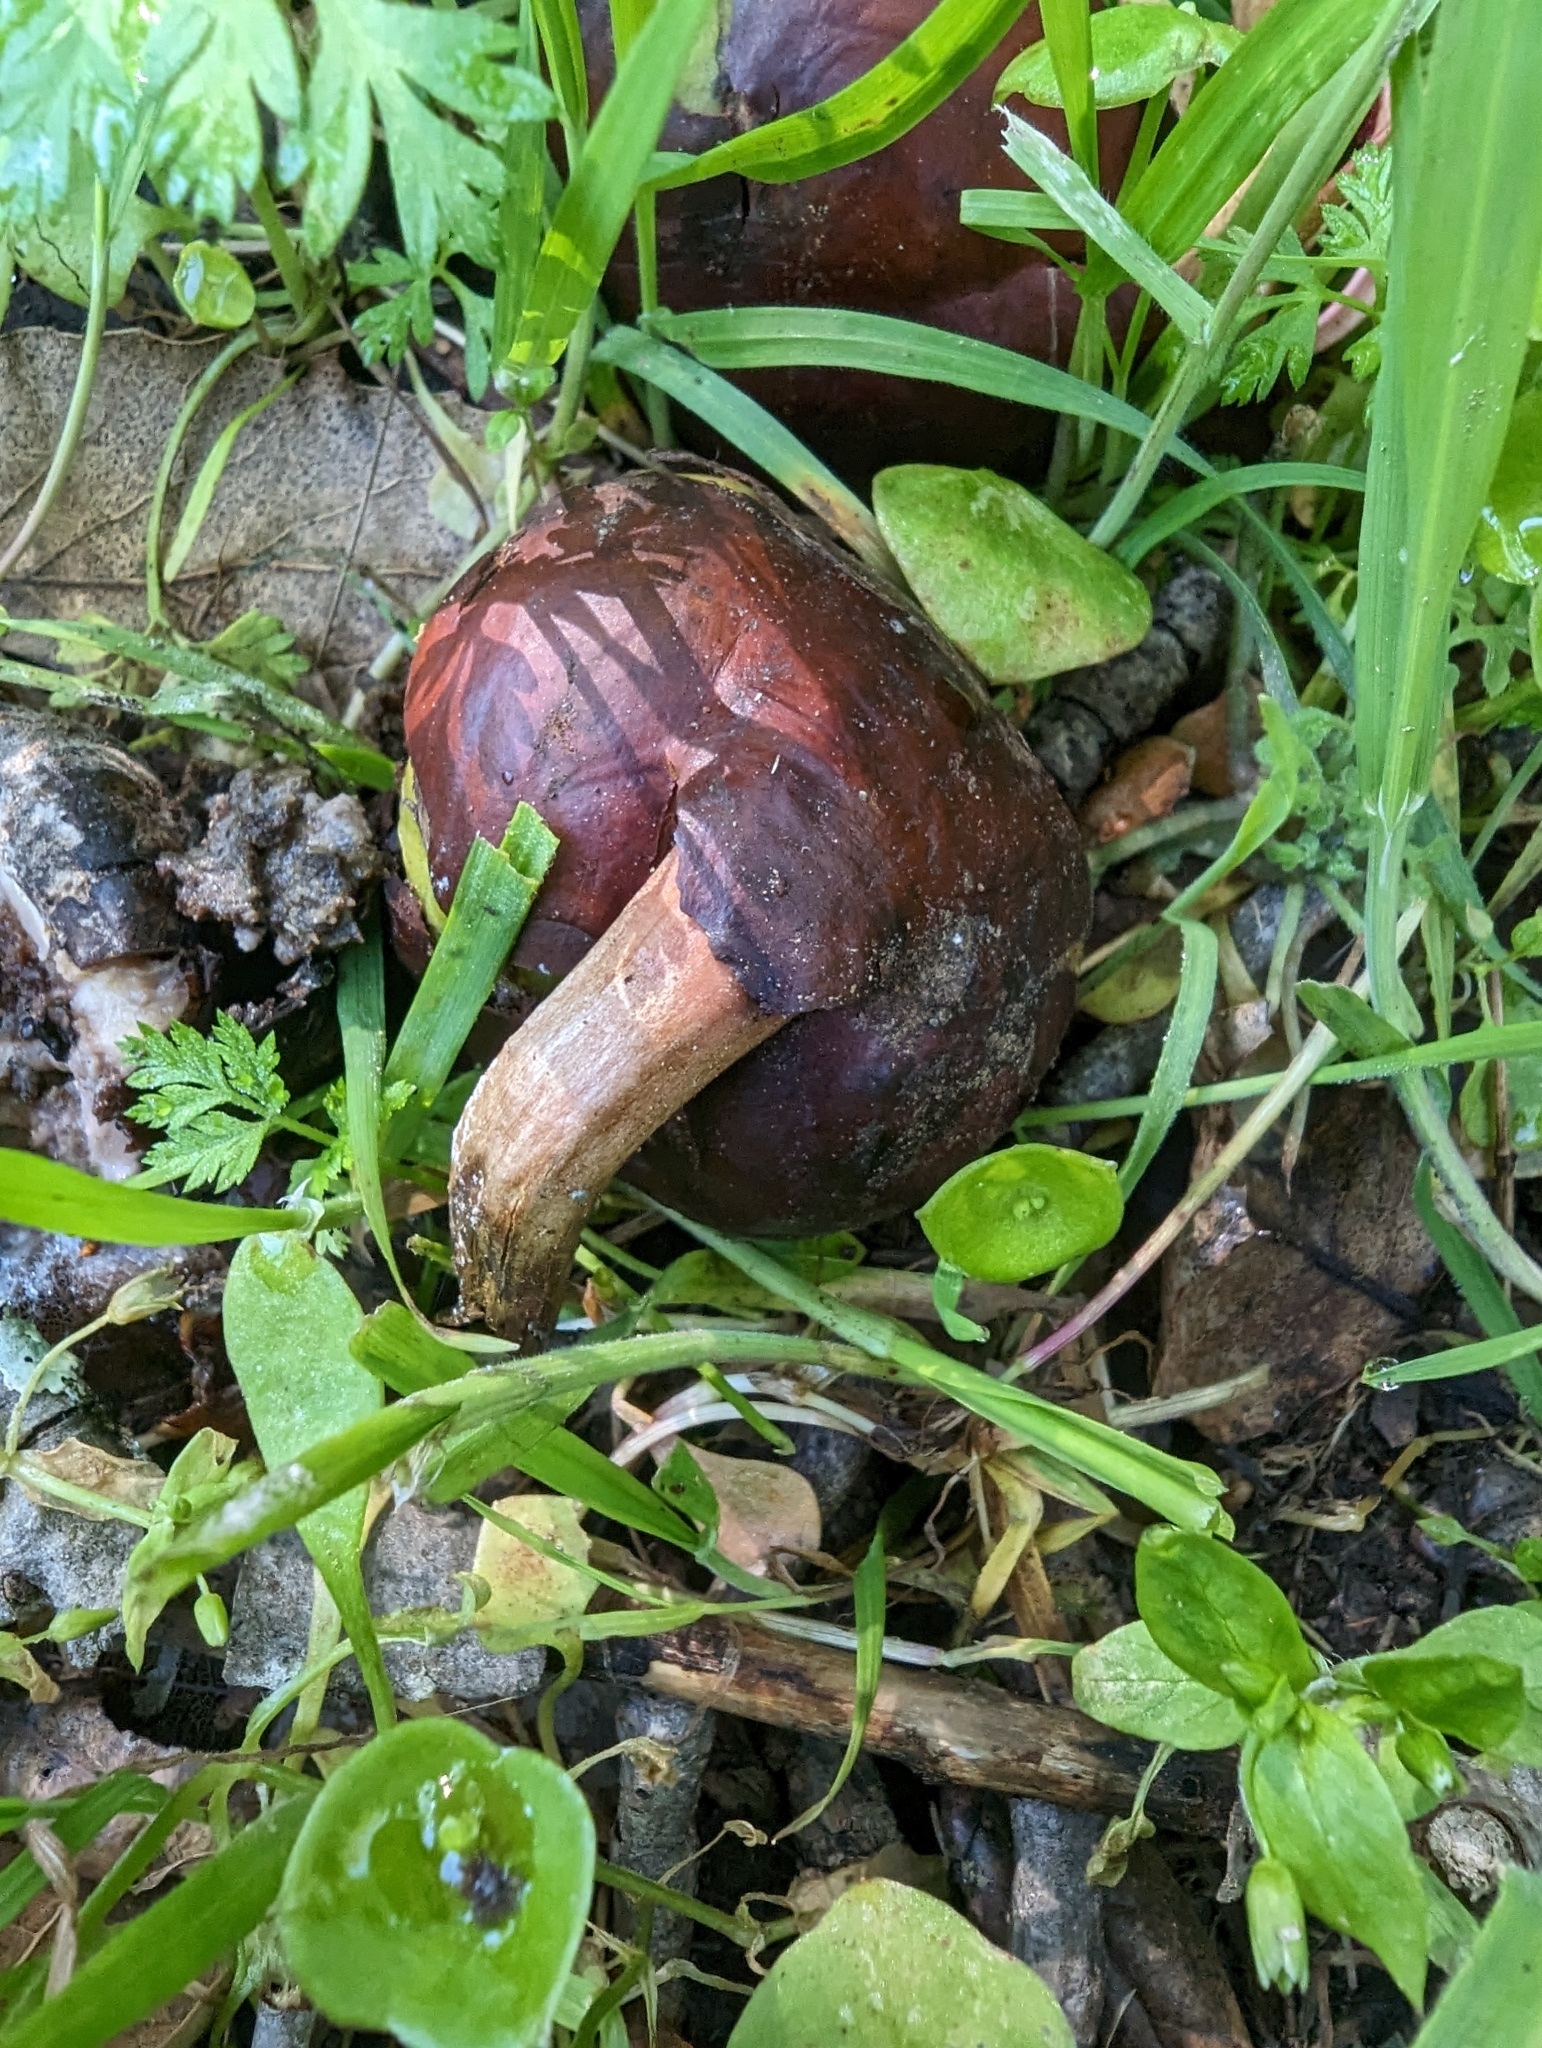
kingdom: Plantae
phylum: Tracheophyta
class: Magnoliopsida
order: Sapindales
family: Sapindaceae
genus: Aesculus
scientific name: Aesculus californica
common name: California buckeye
